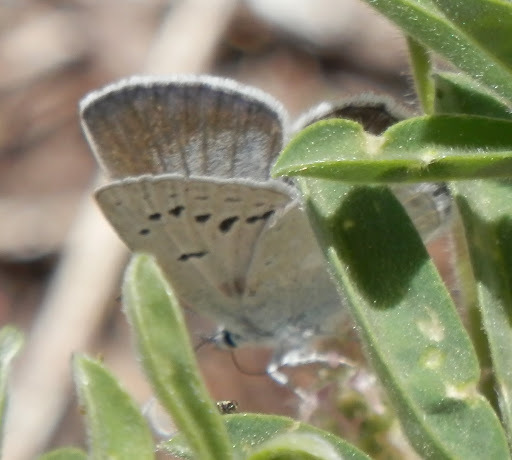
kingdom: Animalia
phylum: Arthropoda
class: Insecta
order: Lepidoptera
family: Lycaenidae
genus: Icaricia
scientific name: Icaricia icarioides
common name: Boisduval's blue
